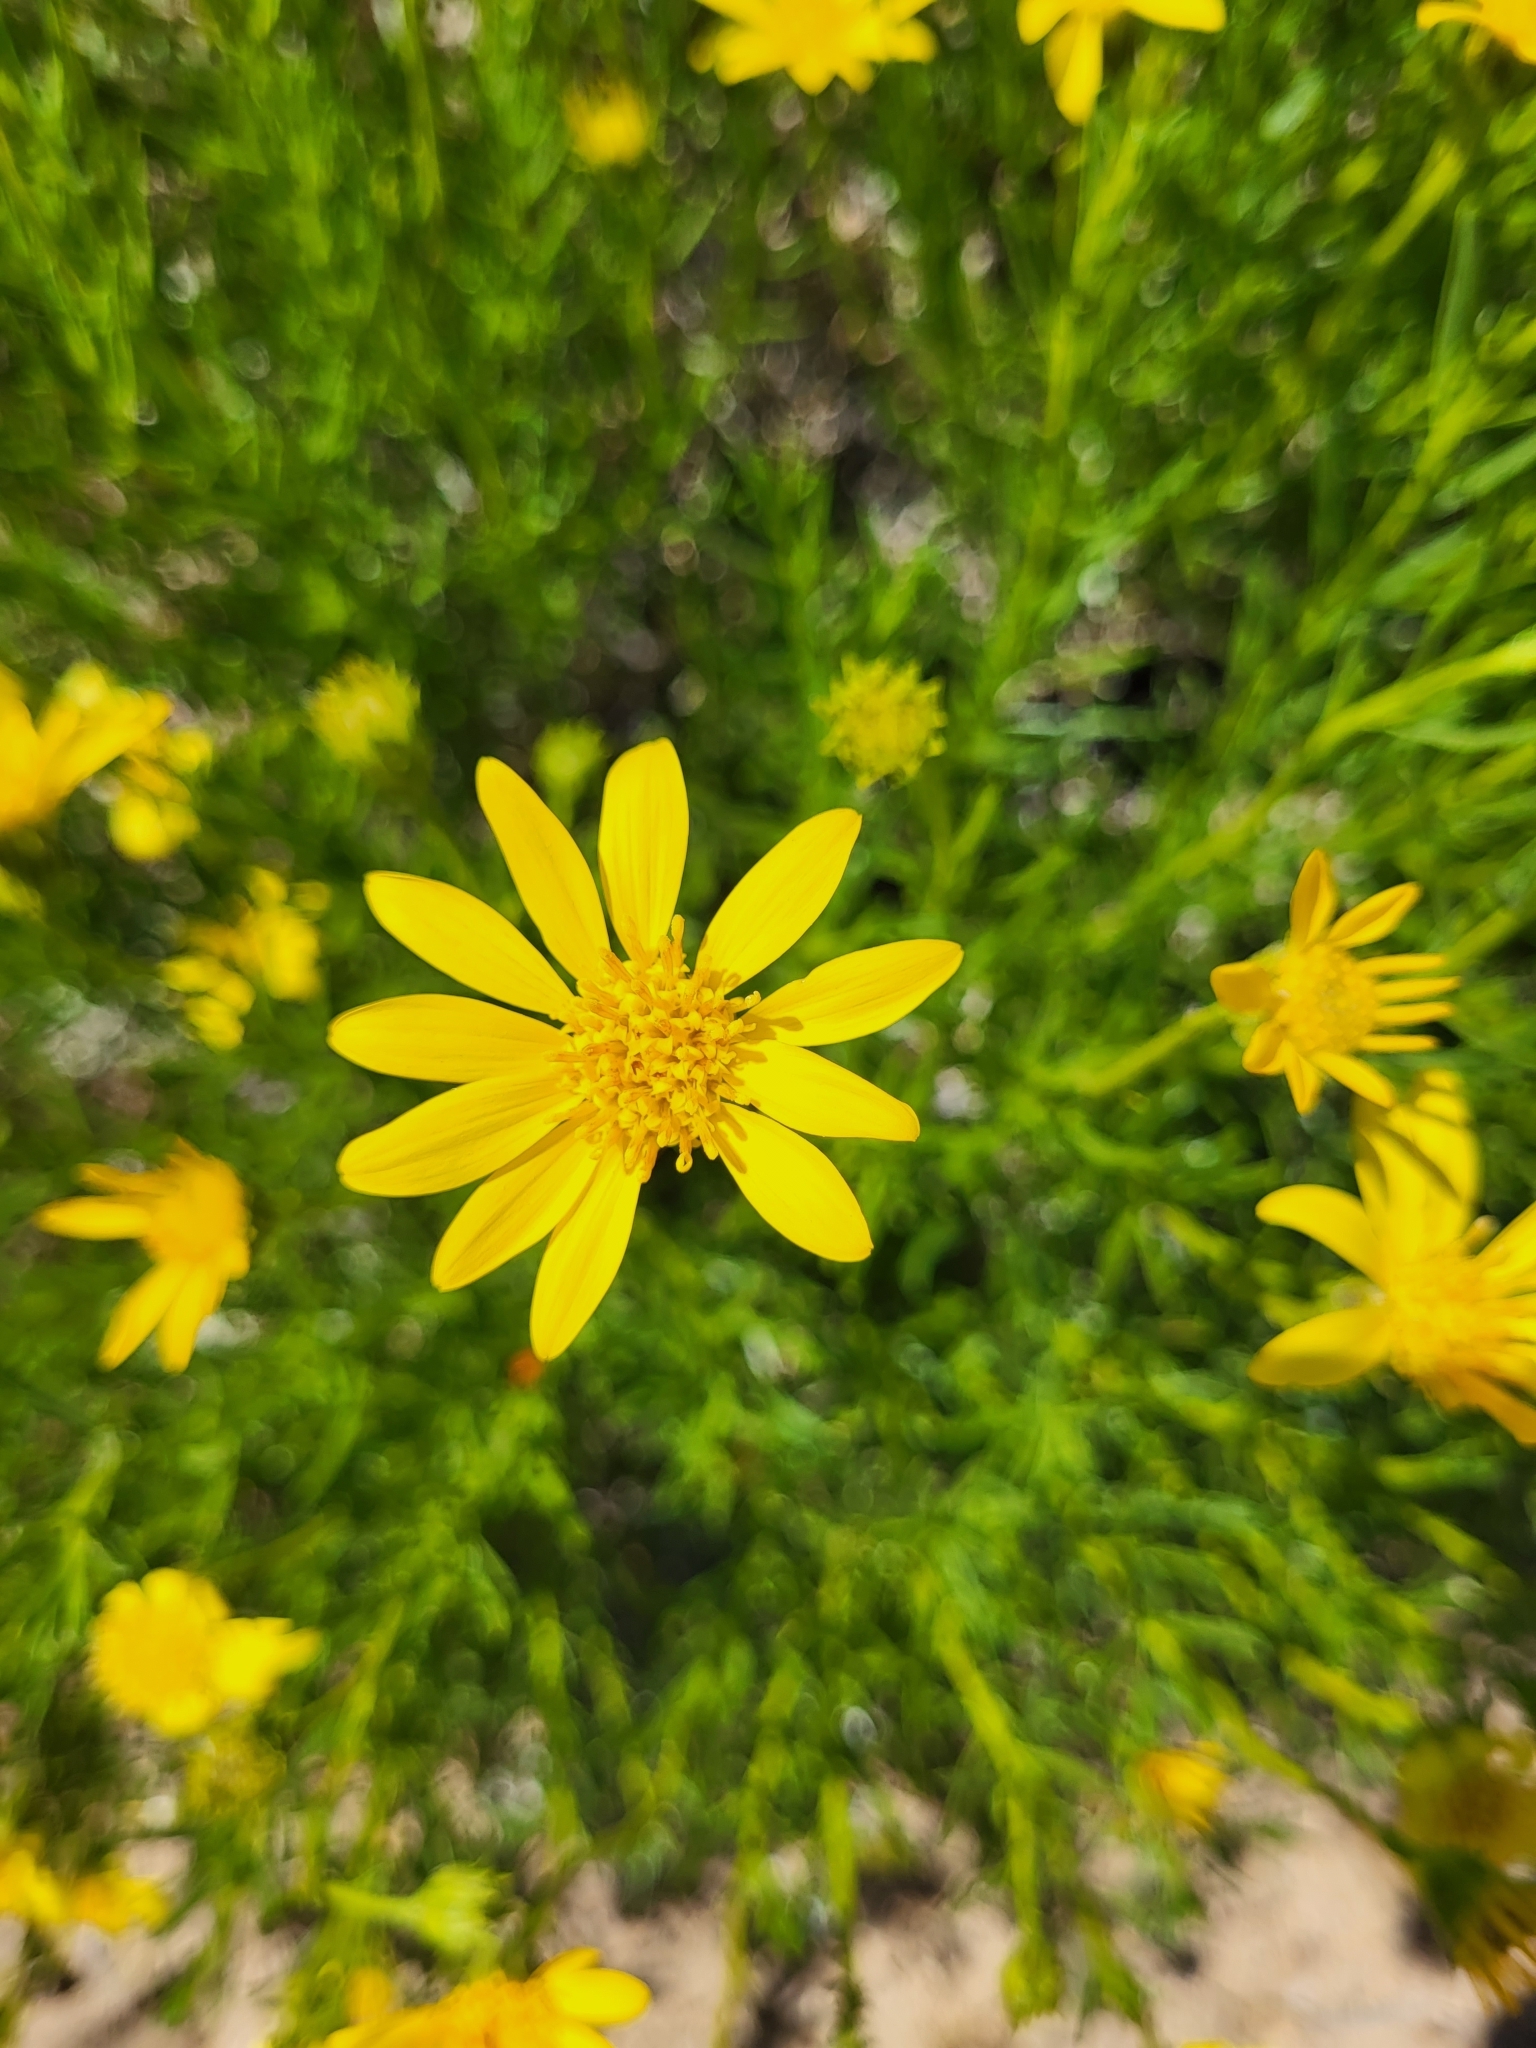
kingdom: Plantae
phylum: Tracheophyta
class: Magnoliopsida
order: Asterales
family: Asteraceae
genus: Ericameria
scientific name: Ericameria linearifolia
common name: Interior goldenbush
